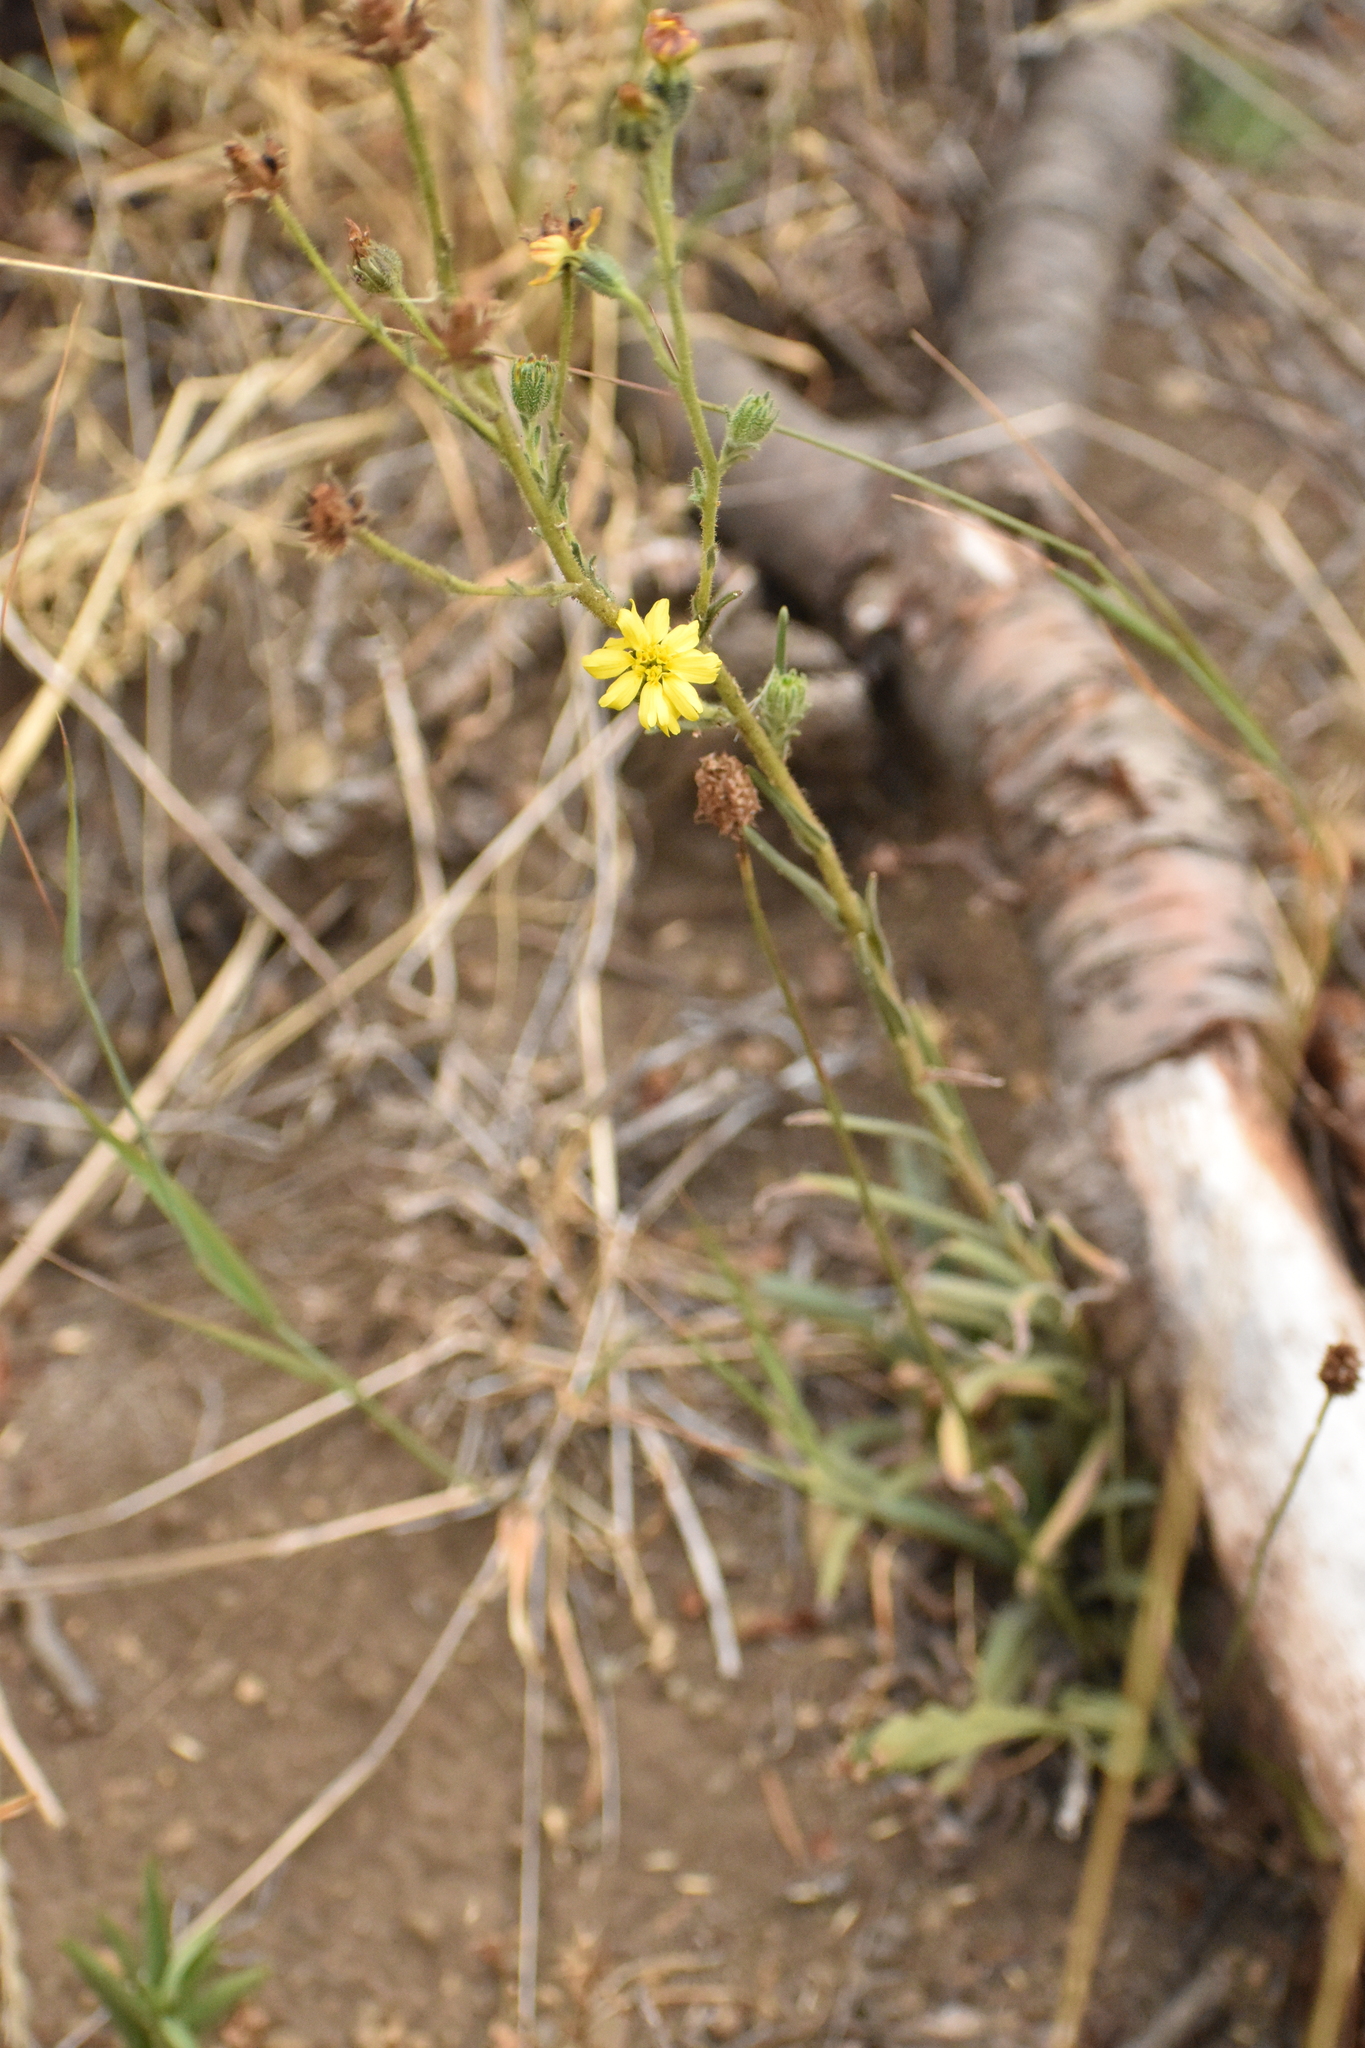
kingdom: Plantae
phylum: Tracheophyta
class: Magnoliopsida
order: Asterales
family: Asteraceae
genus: Madia
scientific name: Madia gracilis
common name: Grassy tarweed
